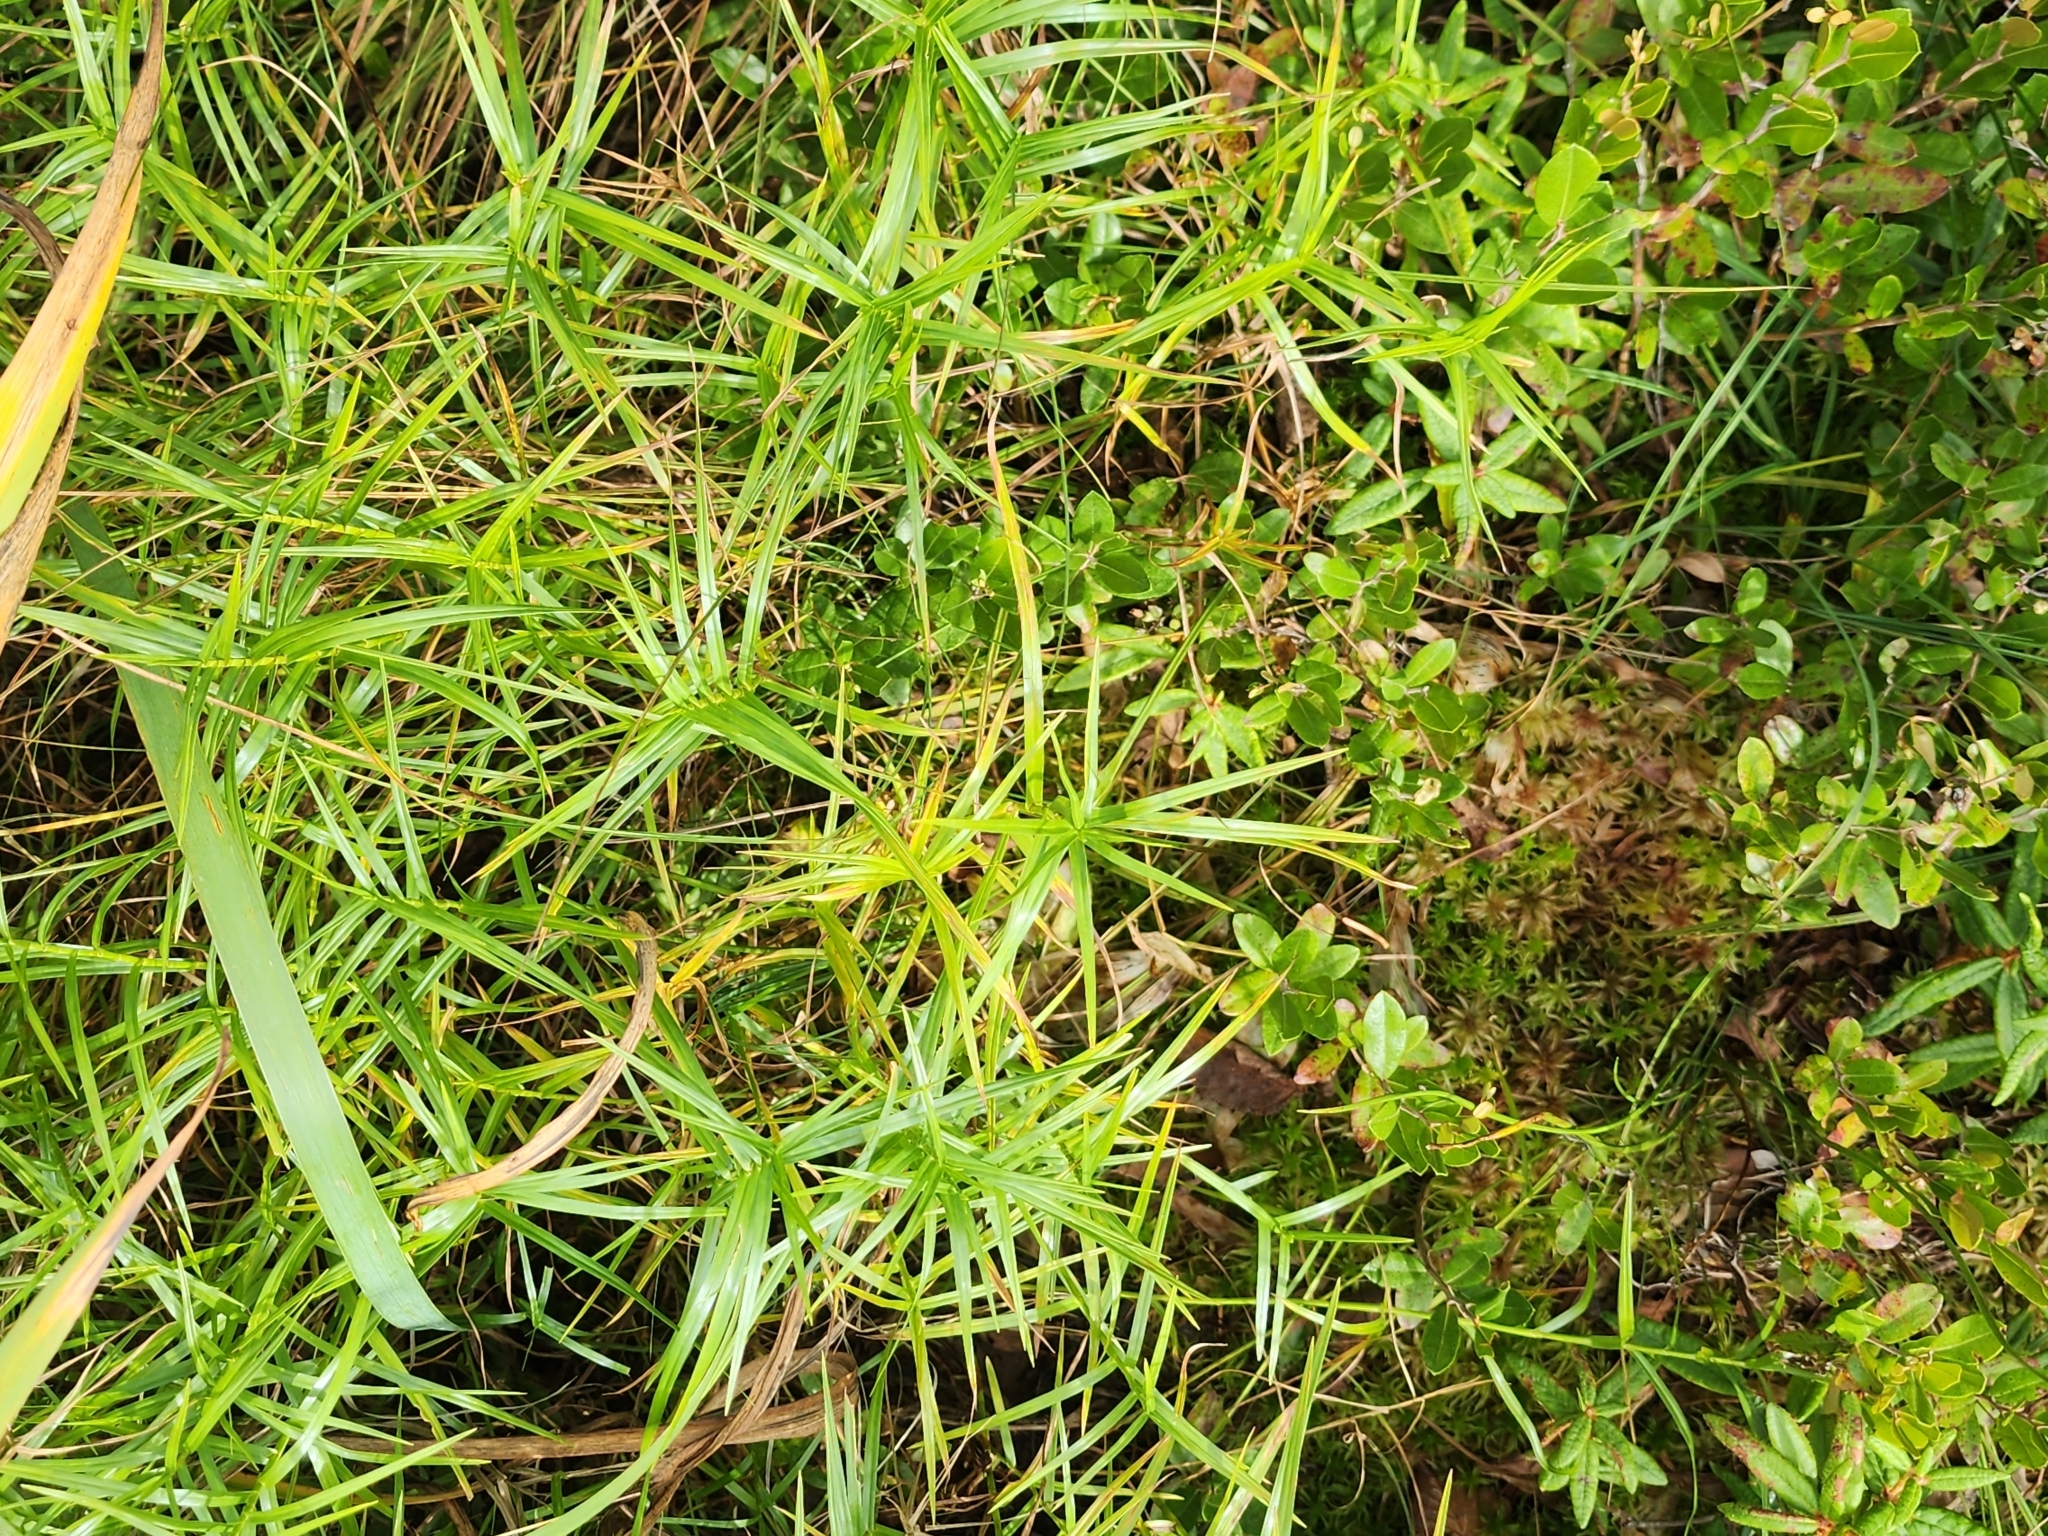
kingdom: Plantae
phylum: Tracheophyta
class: Liliopsida
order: Poales
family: Cyperaceae
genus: Dulichium
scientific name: Dulichium arundinaceum
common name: Three-way sedge
